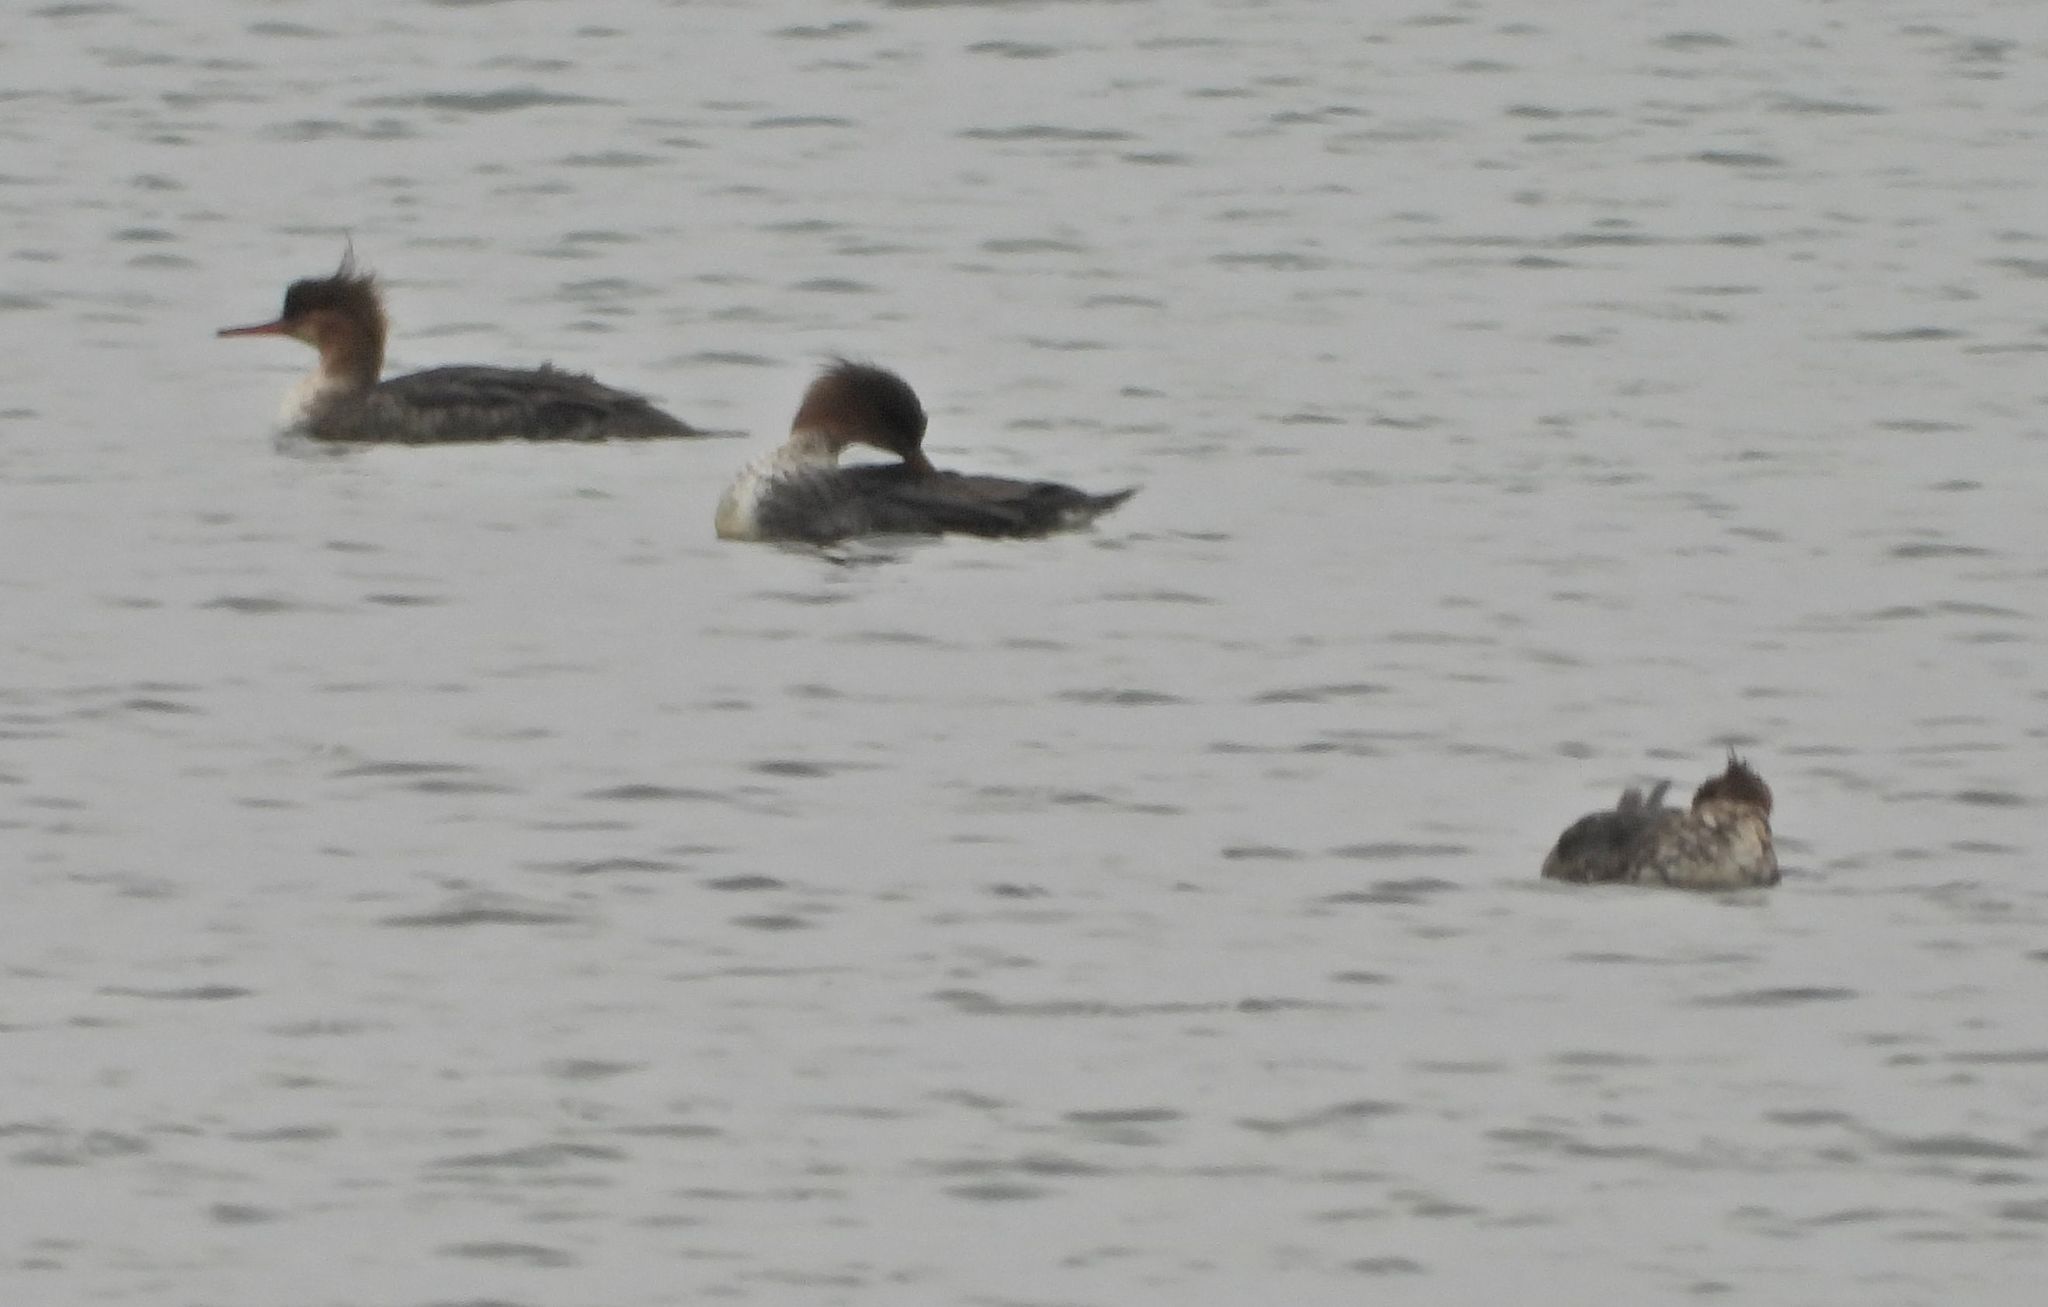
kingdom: Animalia
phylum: Chordata
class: Aves
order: Anseriformes
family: Anatidae
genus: Mergus
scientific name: Mergus merganser
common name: Common merganser
